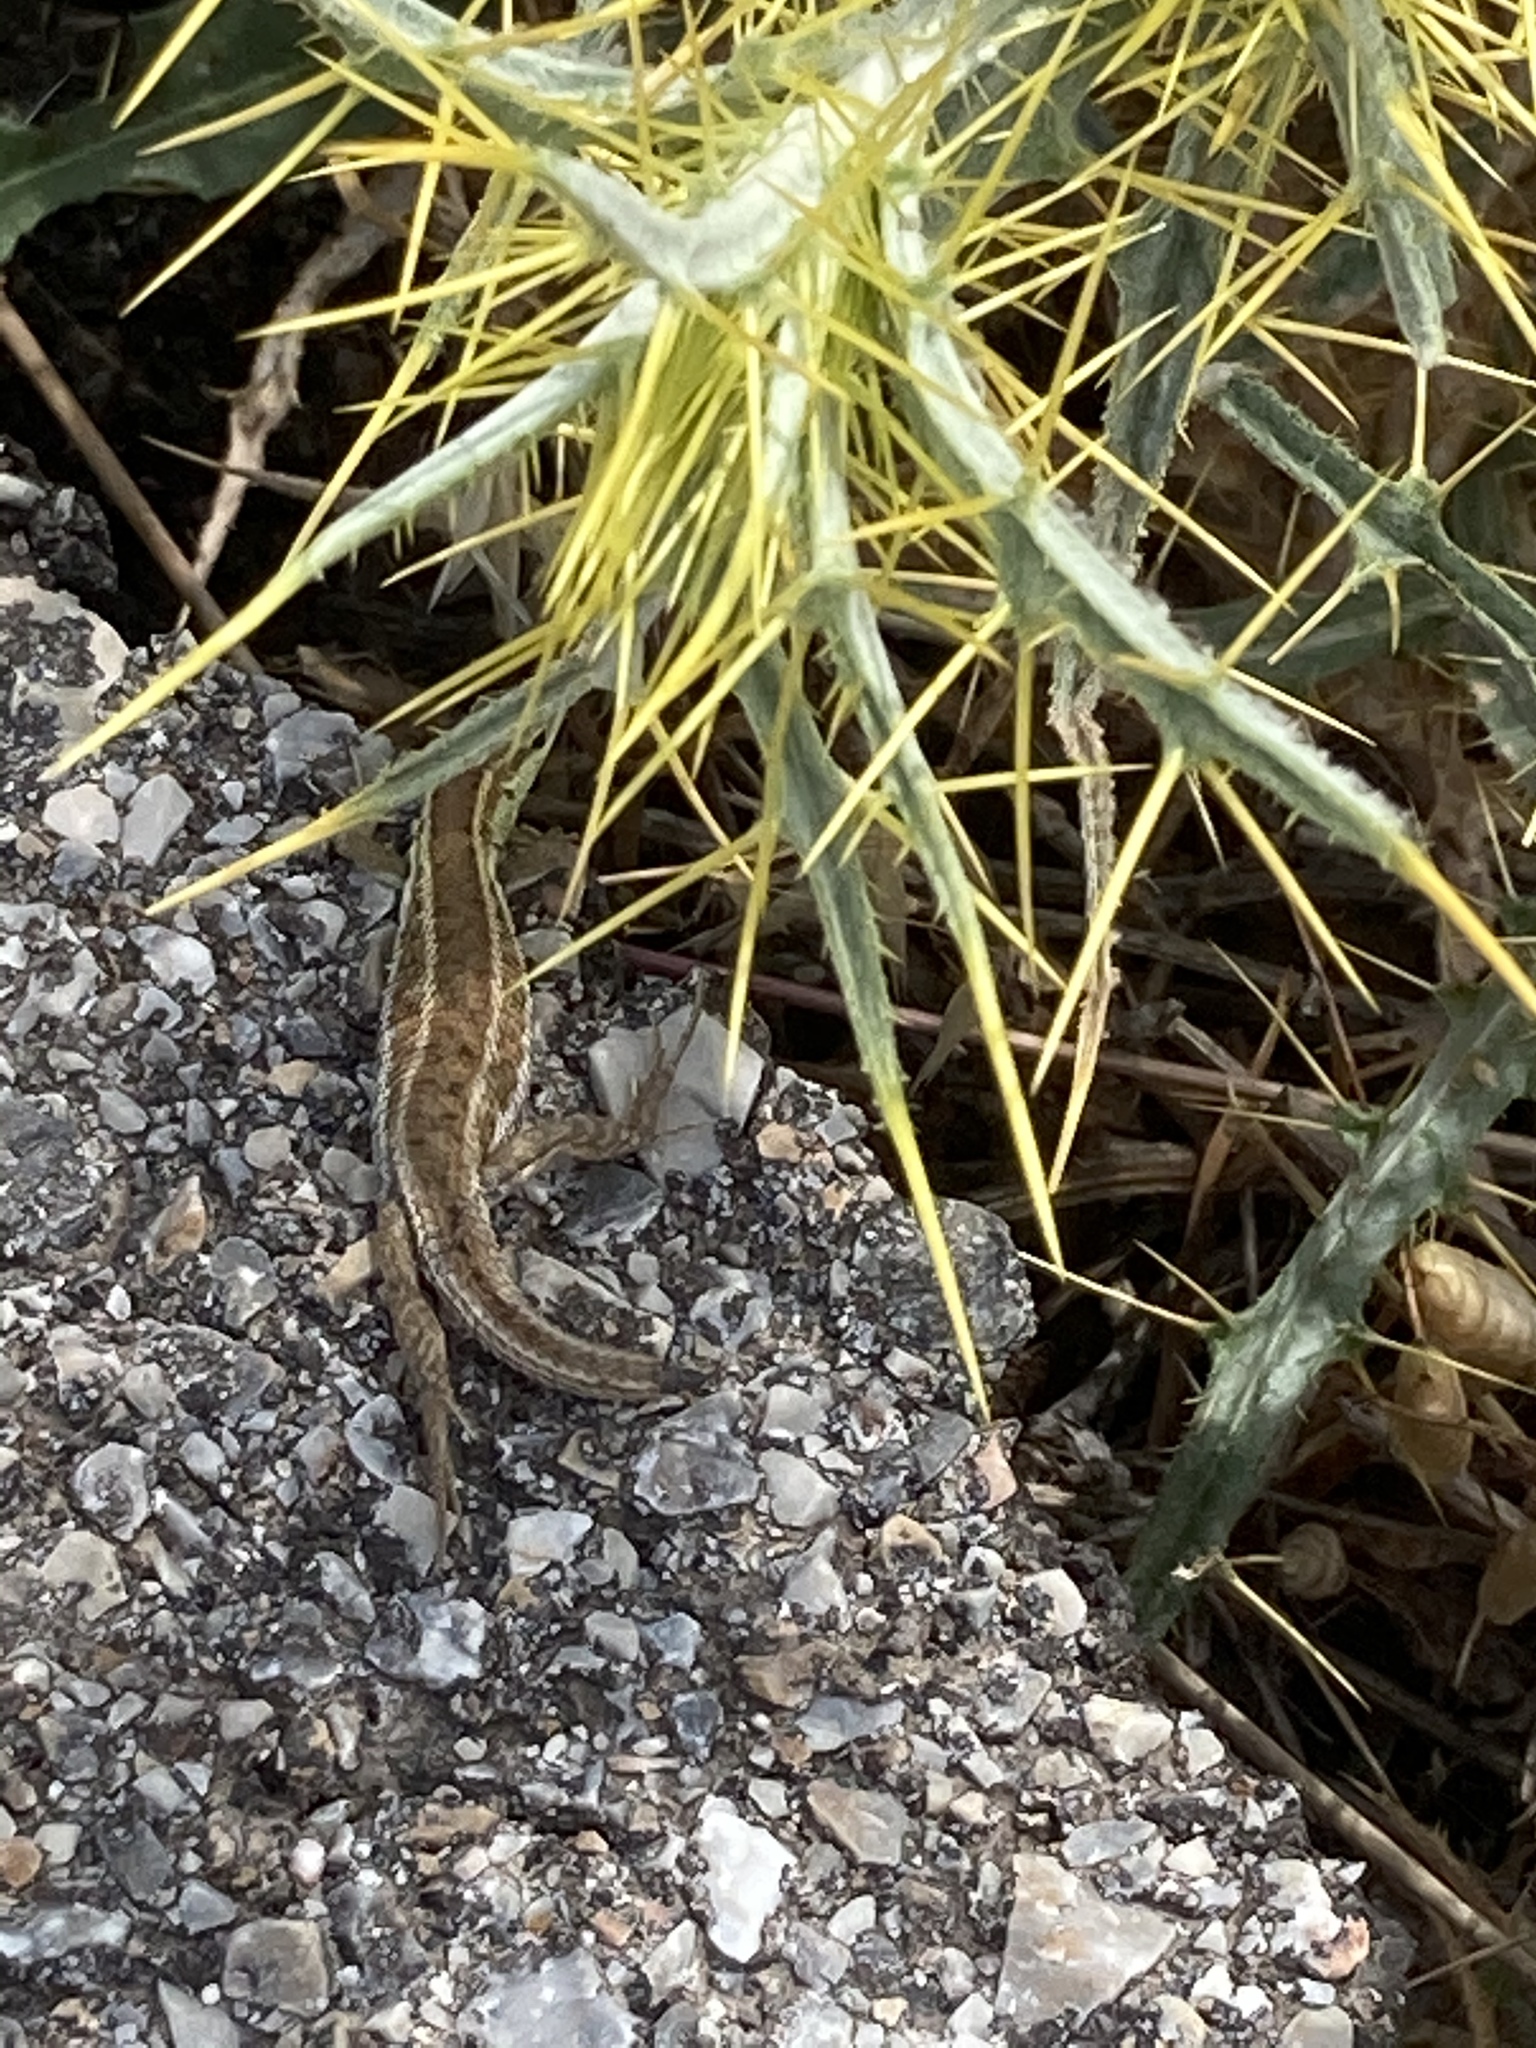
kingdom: Animalia
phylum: Chordata
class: Squamata
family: Lacertidae
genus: Ophisops
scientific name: Ophisops elegans
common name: Snake-eyed lizard
